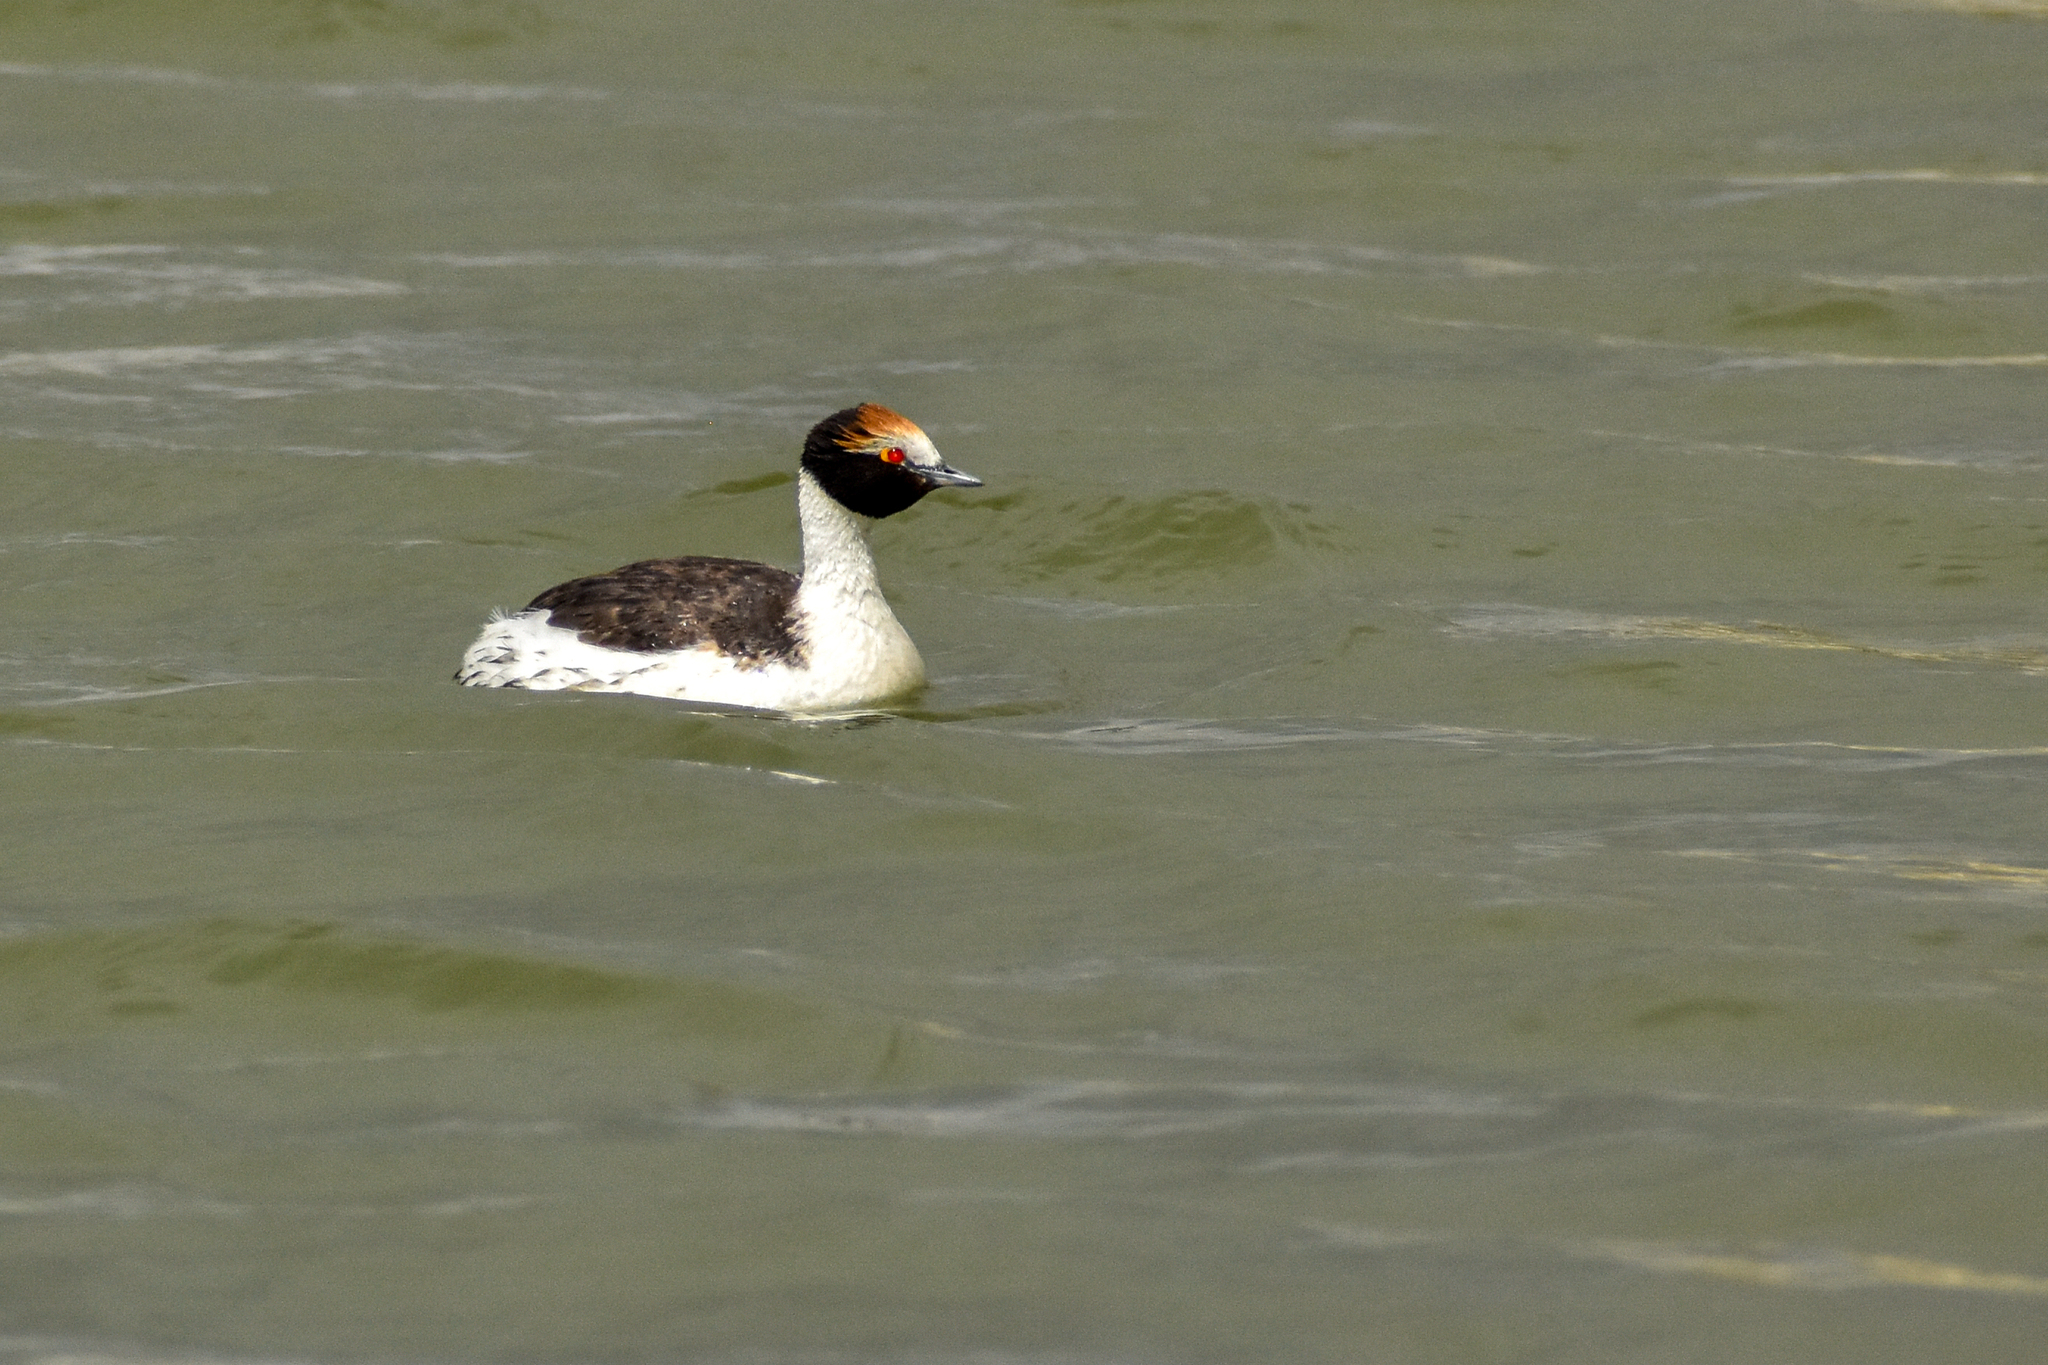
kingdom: Animalia
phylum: Chordata
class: Aves
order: Podicipediformes
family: Podicipedidae
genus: Podiceps
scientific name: Podiceps gallardoi
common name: Hooded grebe
